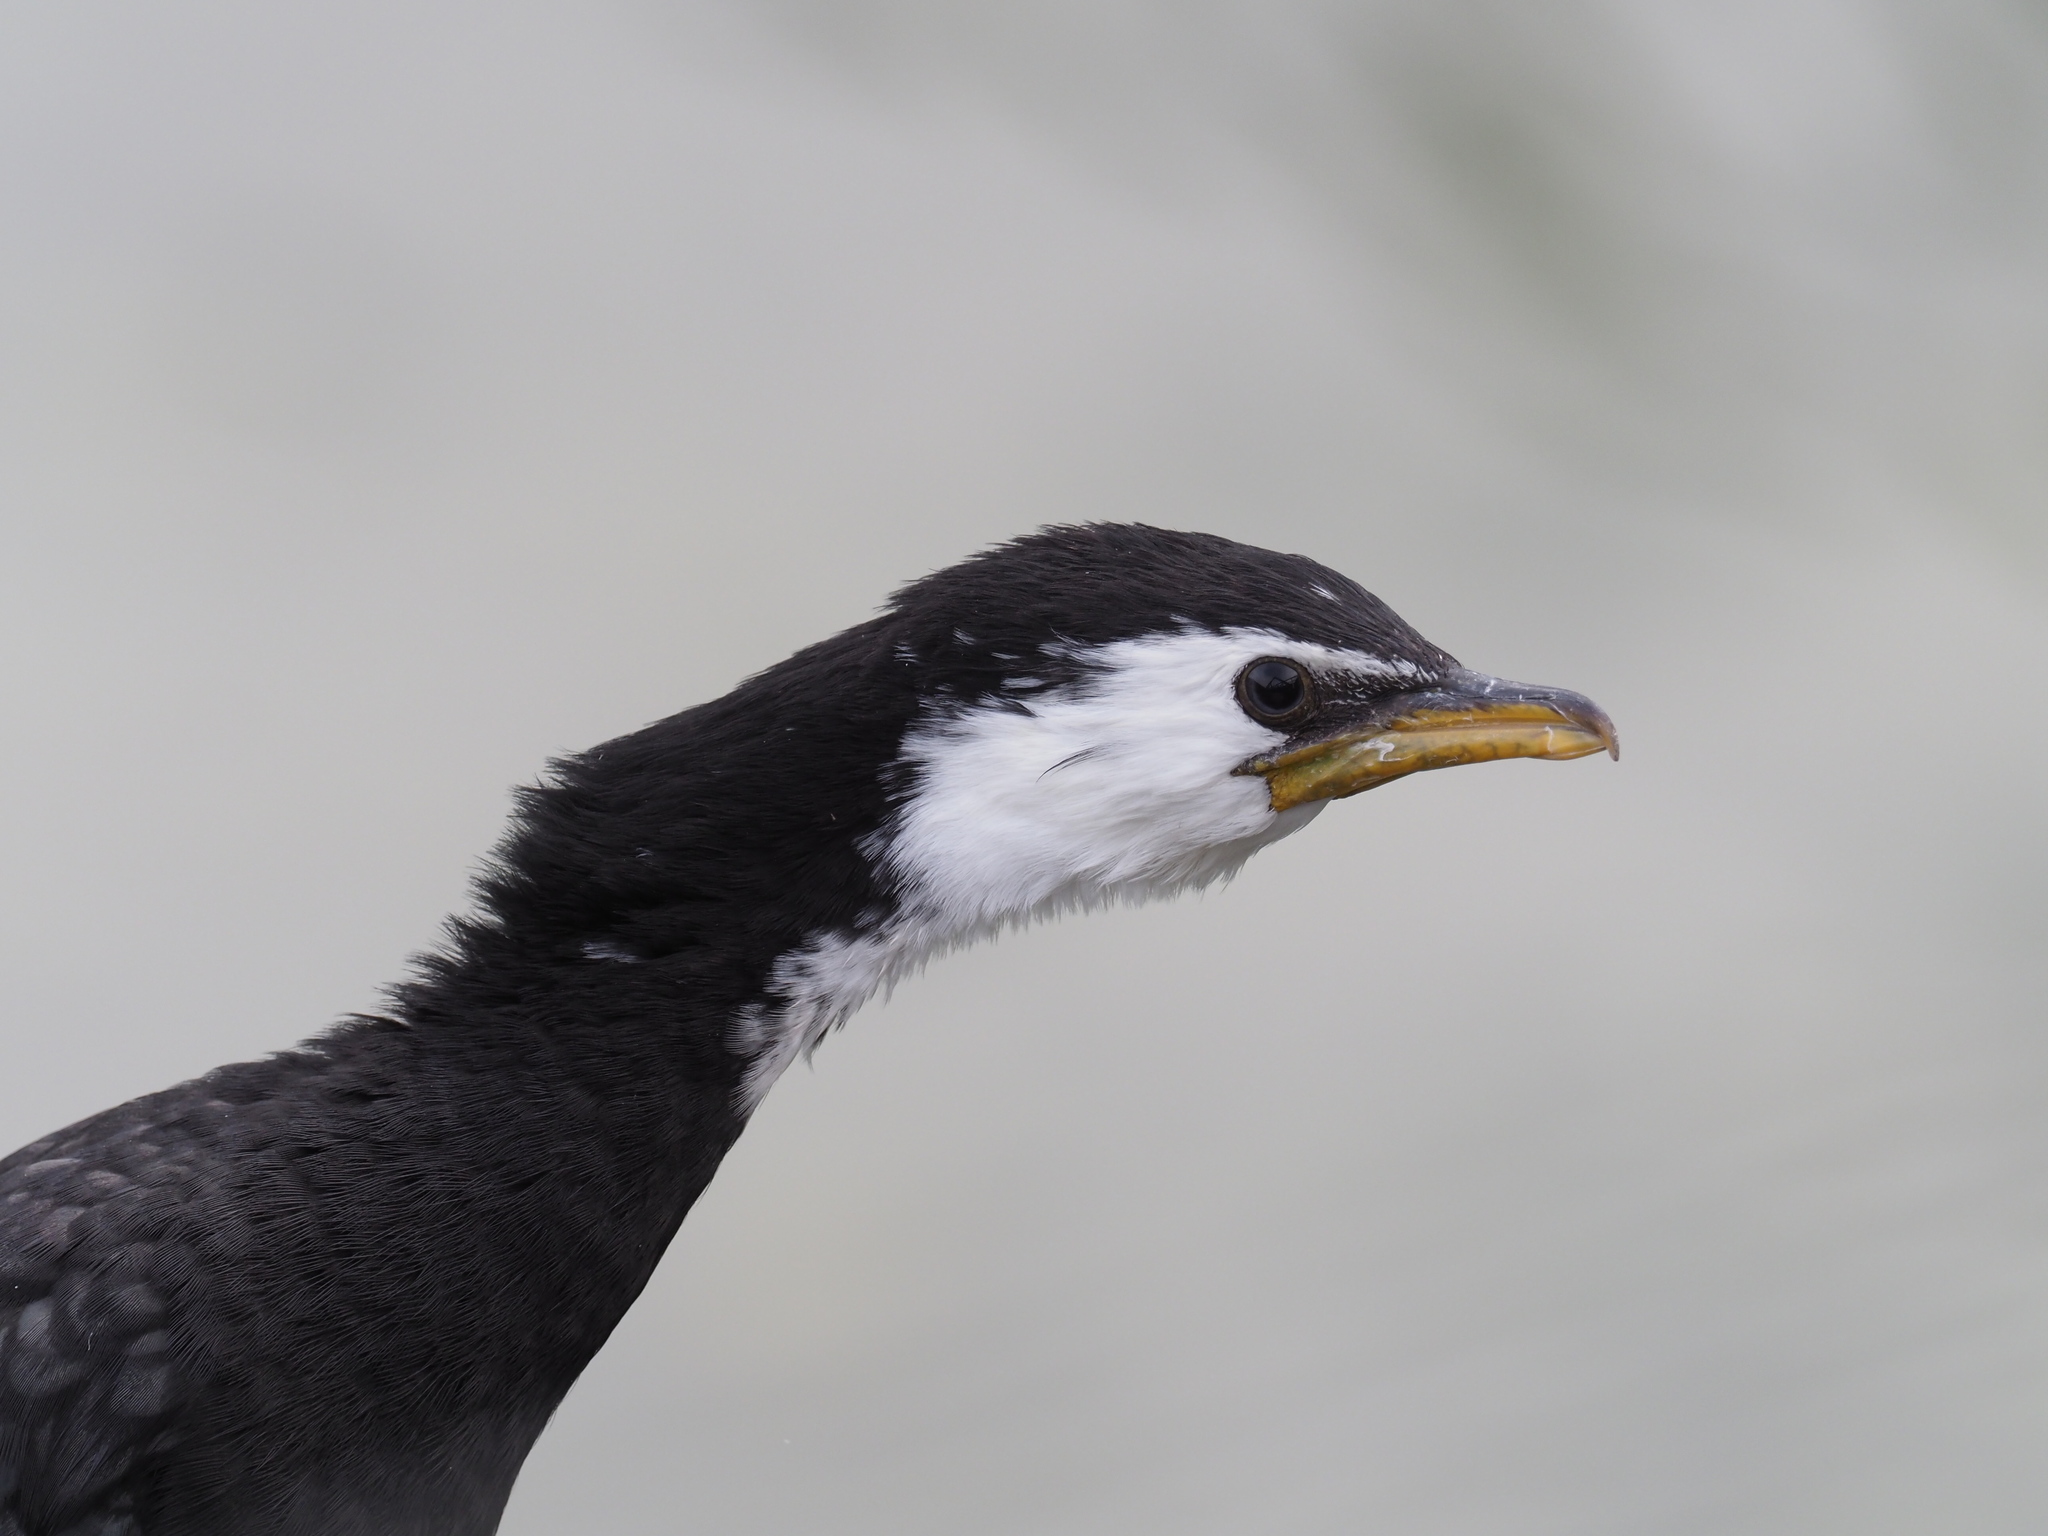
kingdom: Animalia
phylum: Chordata
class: Aves
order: Suliformes
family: Phalacrocoracidae
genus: Microcarbo
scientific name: Microcarbo melanoleucos
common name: Little pied cormorant
